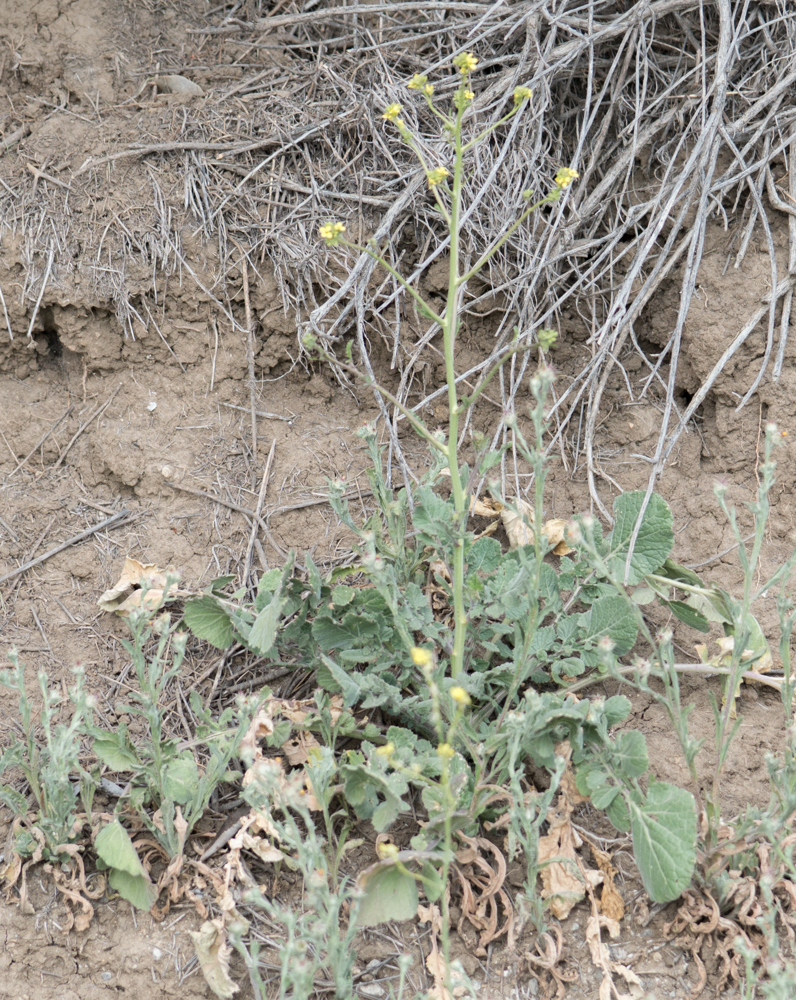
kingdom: Plantae
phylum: Tracheophyta
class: Magnoliopsida
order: Brassicales
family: Brassicaceae
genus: Hirschfeldia
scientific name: Hirschfeldia incana
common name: Hoary mustard
